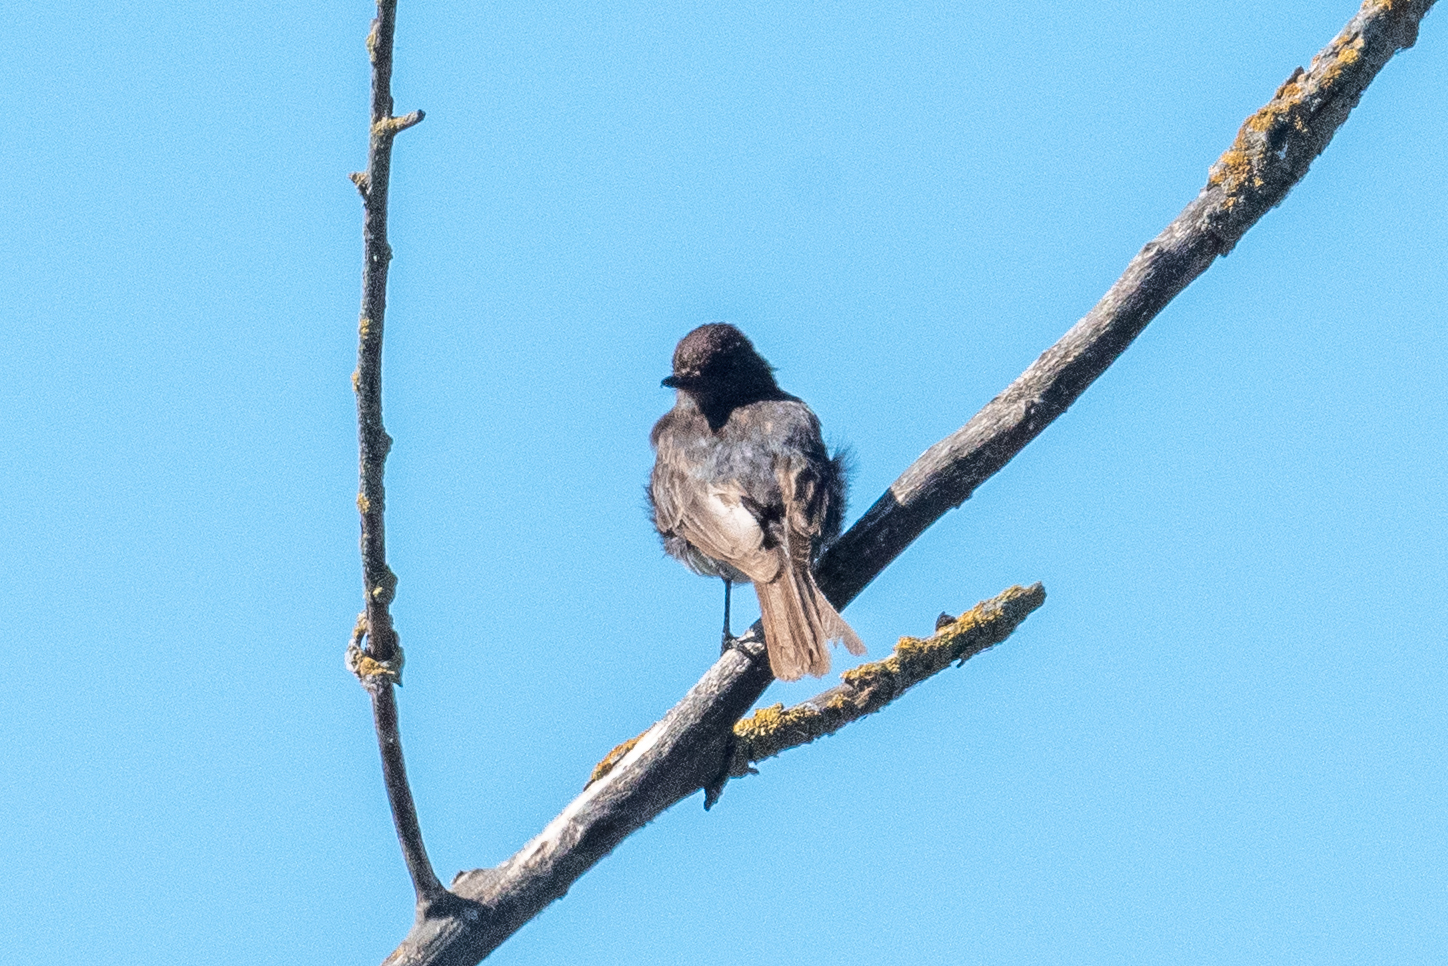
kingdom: Animalia
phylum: Chordata
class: Aves
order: Passeriformes
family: Tyrannidae
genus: Sayornis
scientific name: Sayornis nigricans
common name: Black phoebe
